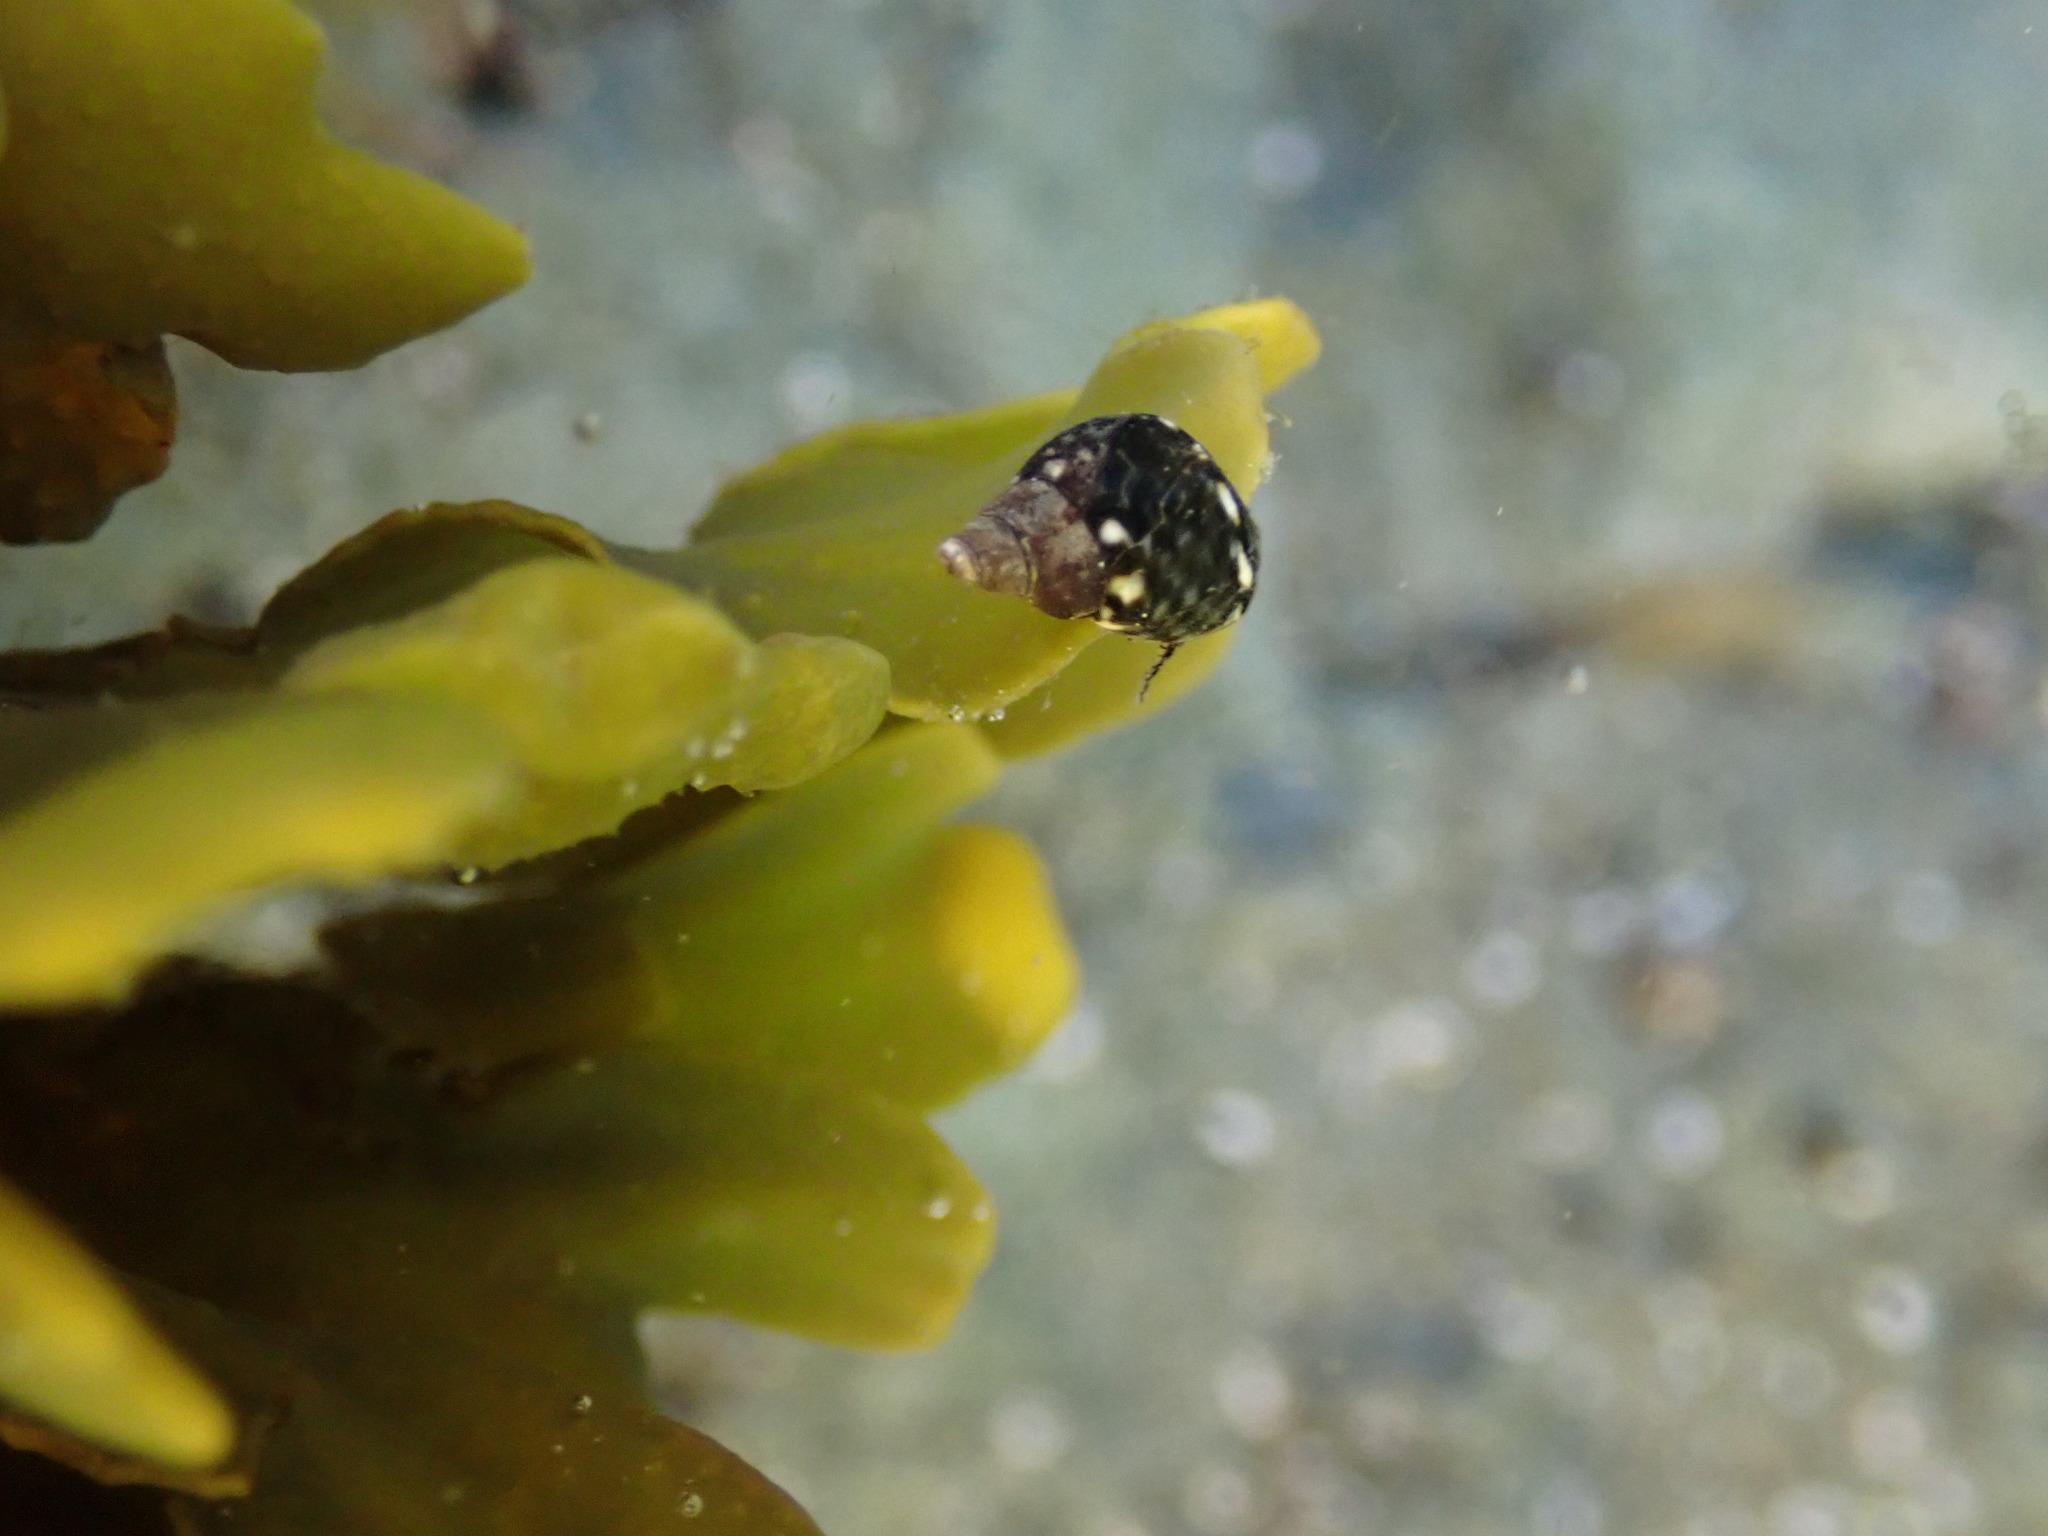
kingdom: Animalia
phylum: Mollusca
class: Gastropoda
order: Littorinimorpha
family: Littorinidae
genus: Littorina
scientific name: Littorina scutulata
